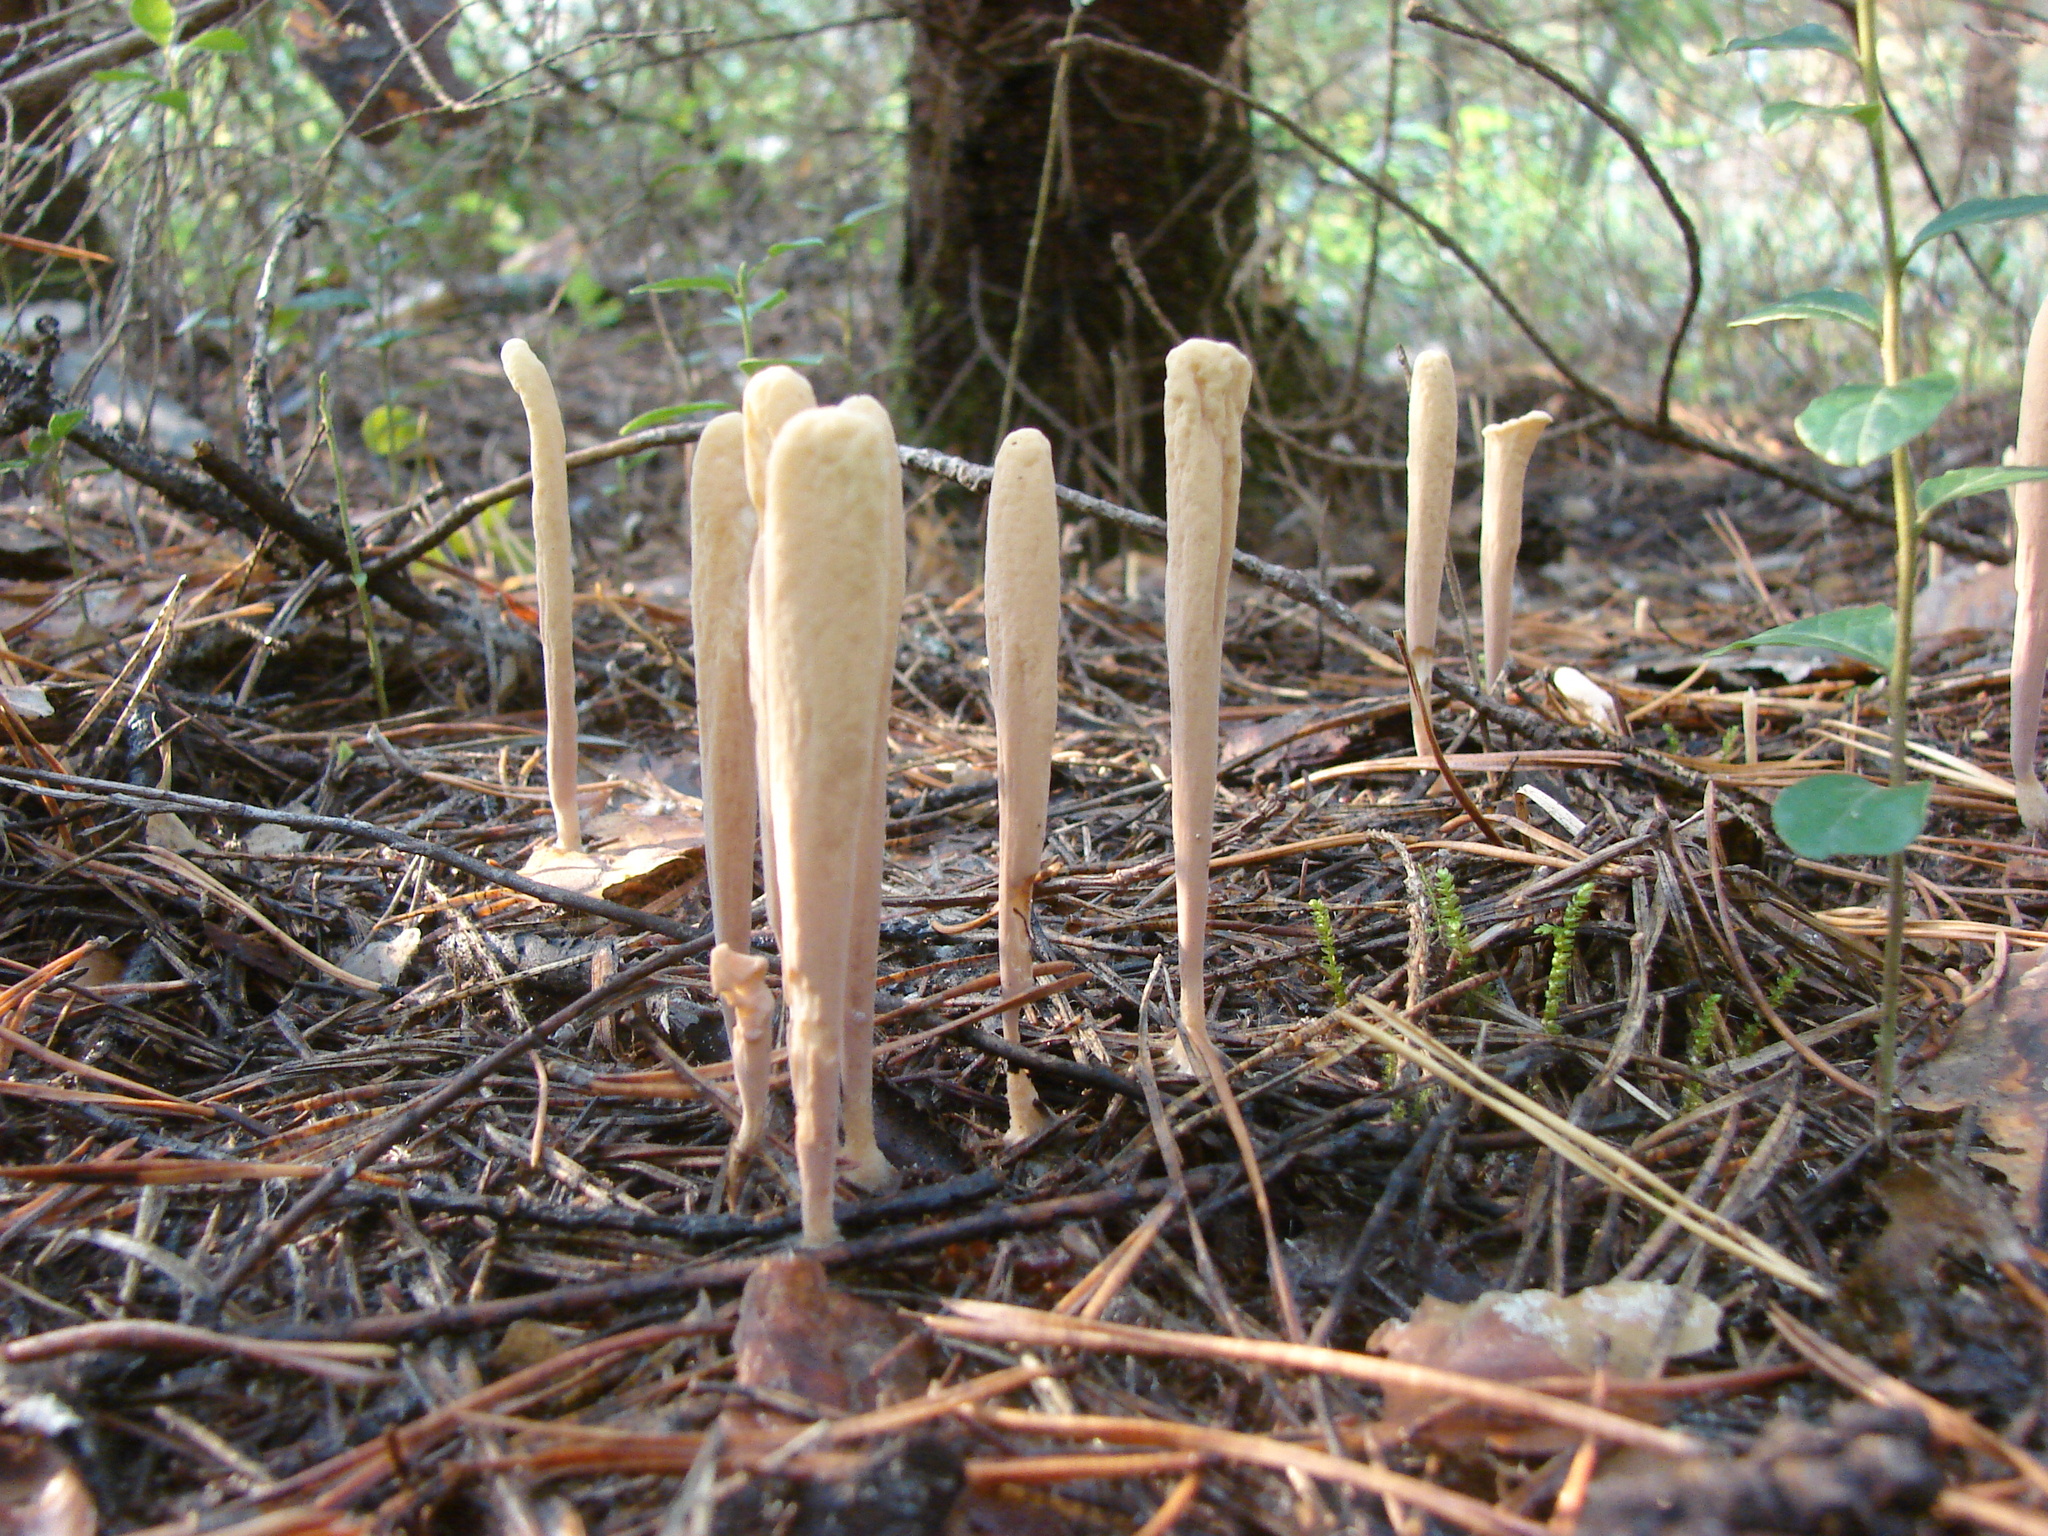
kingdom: Fungi
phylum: Basidiomycota
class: Agaricomycetes
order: Gomphales
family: Clavariadelphaceae
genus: Clavariadelphus
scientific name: Clavariadelphus ligula
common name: Ochre club
